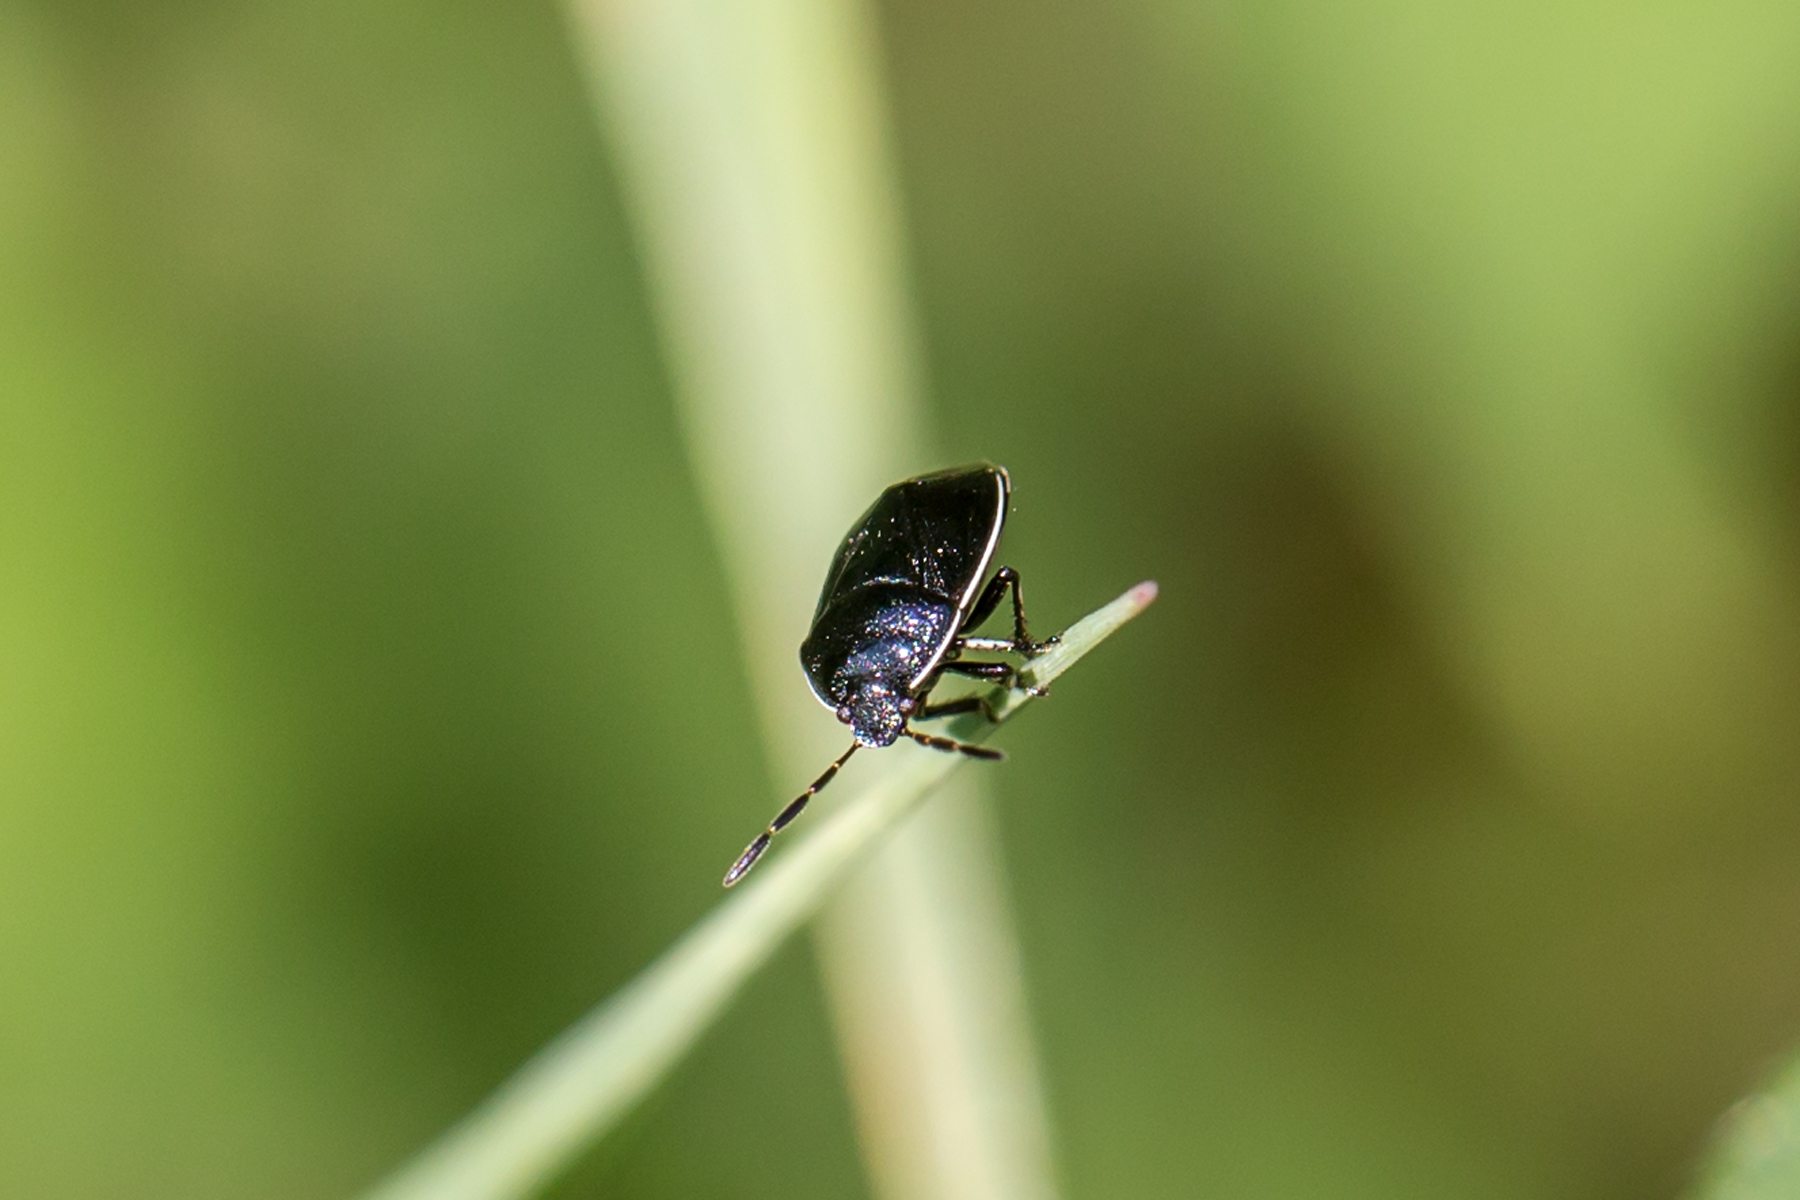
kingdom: Animalia
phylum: Arthropoda
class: Insecta
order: Hemiptera
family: Cydnidae
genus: Sehirus
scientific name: Sehirus cinctus
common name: White-margined burrower bug
